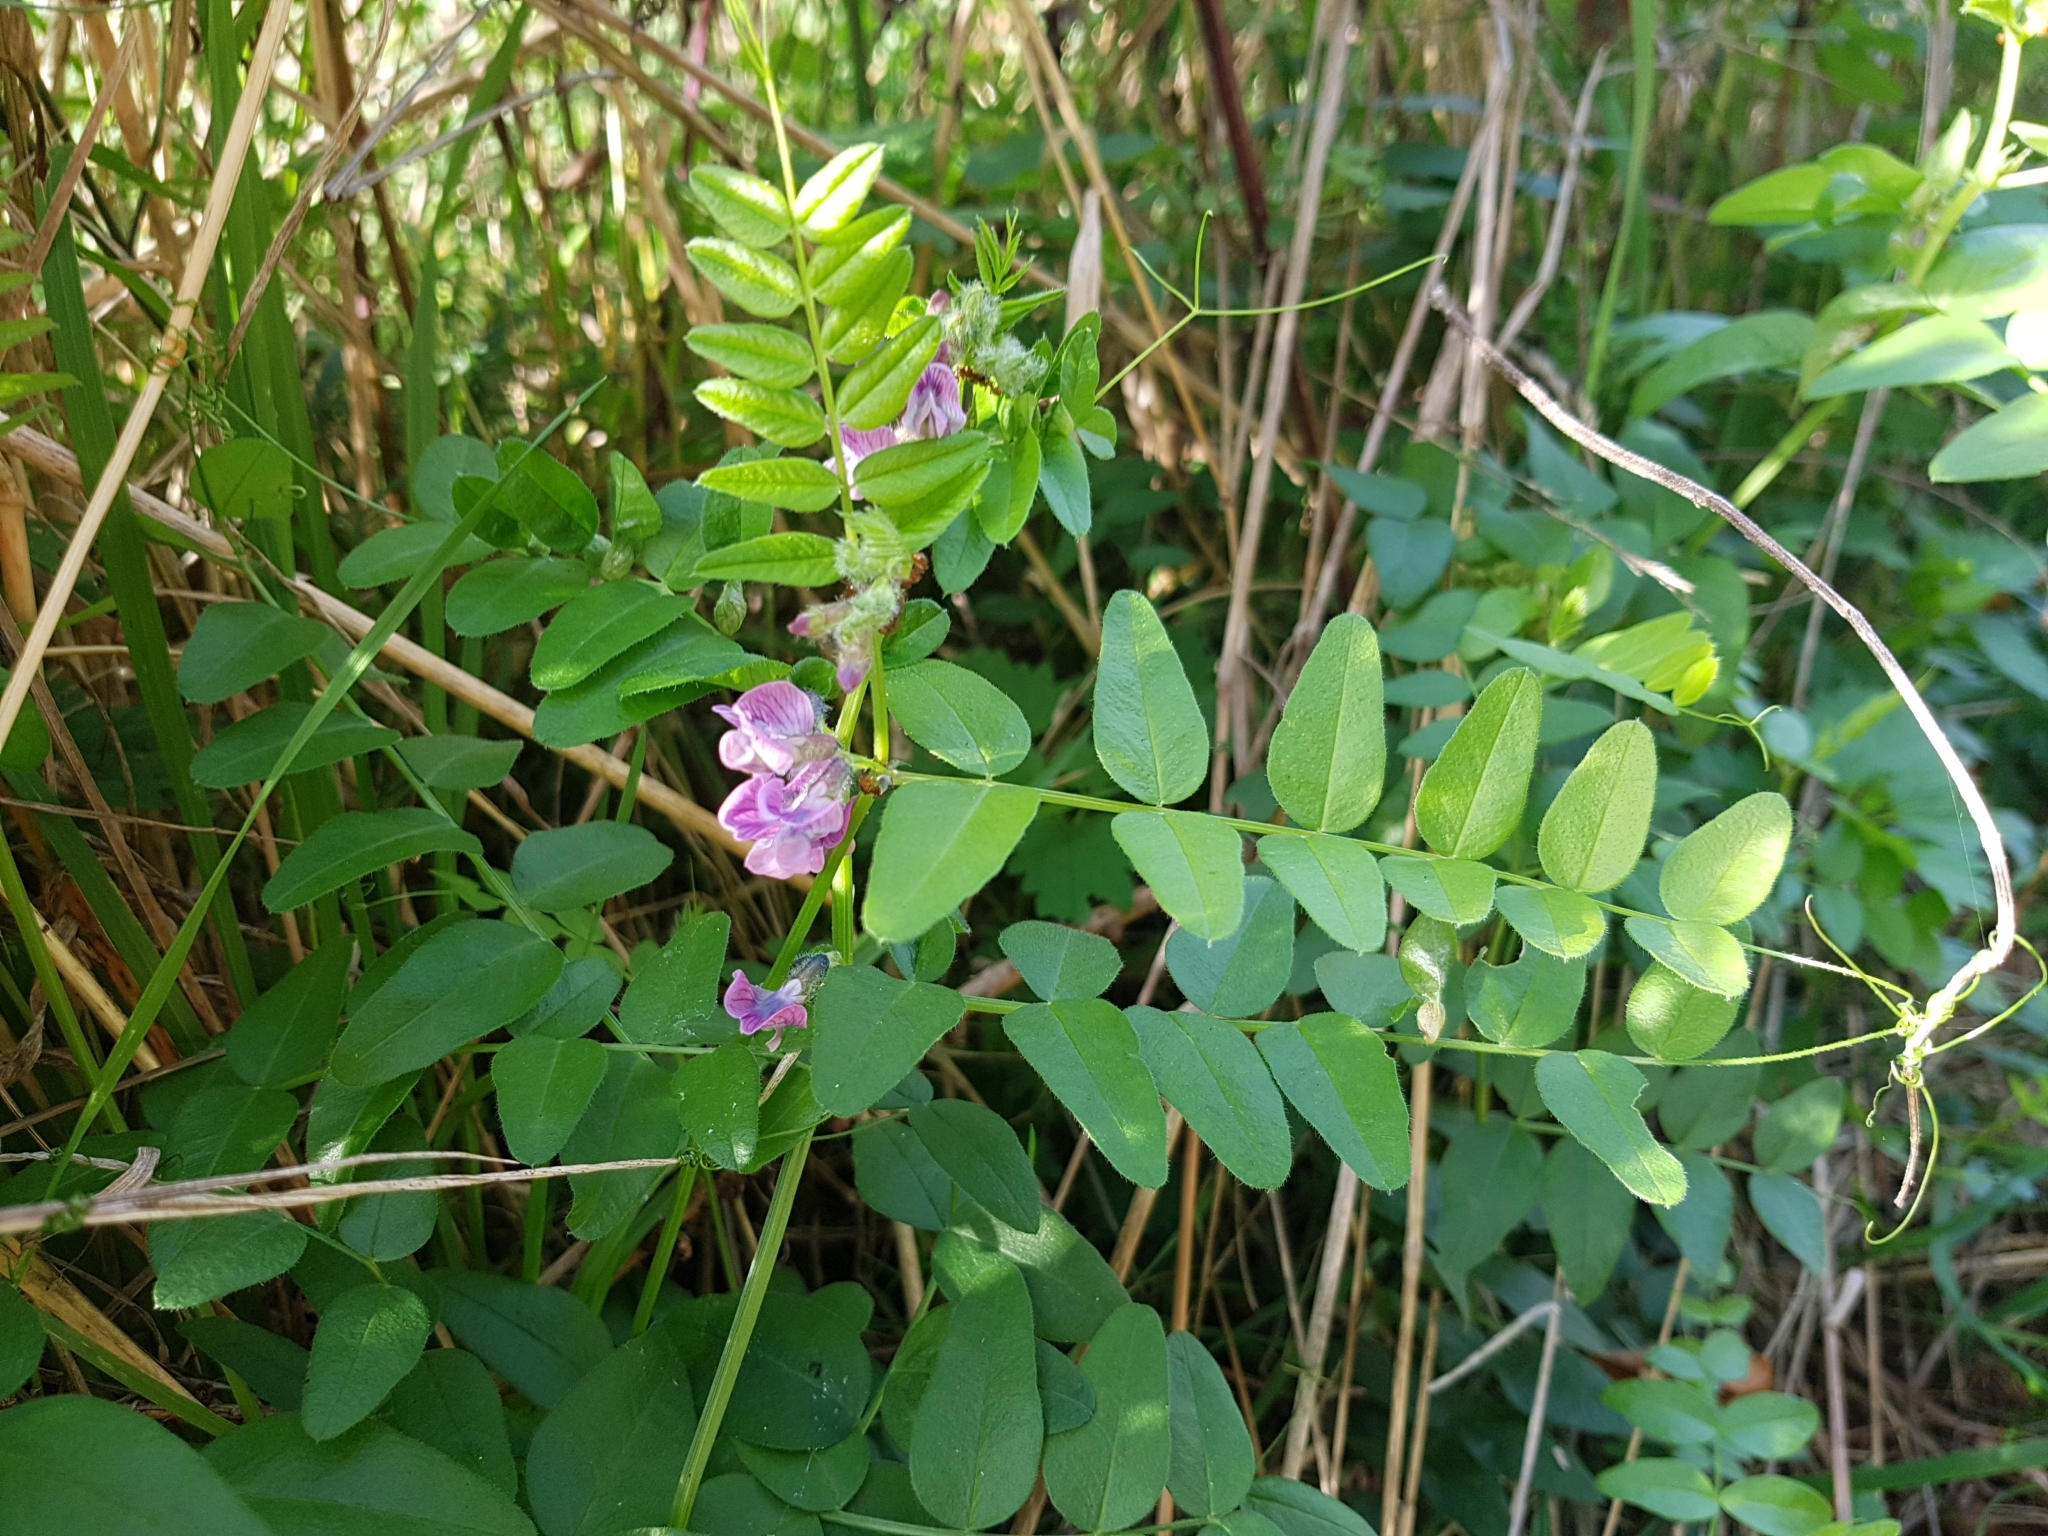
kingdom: Plantae
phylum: Tracheophyta
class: Magnoliopsida
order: Fabales
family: Fabaceae
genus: Vicia
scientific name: Vicia sepium
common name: Bush vetch
